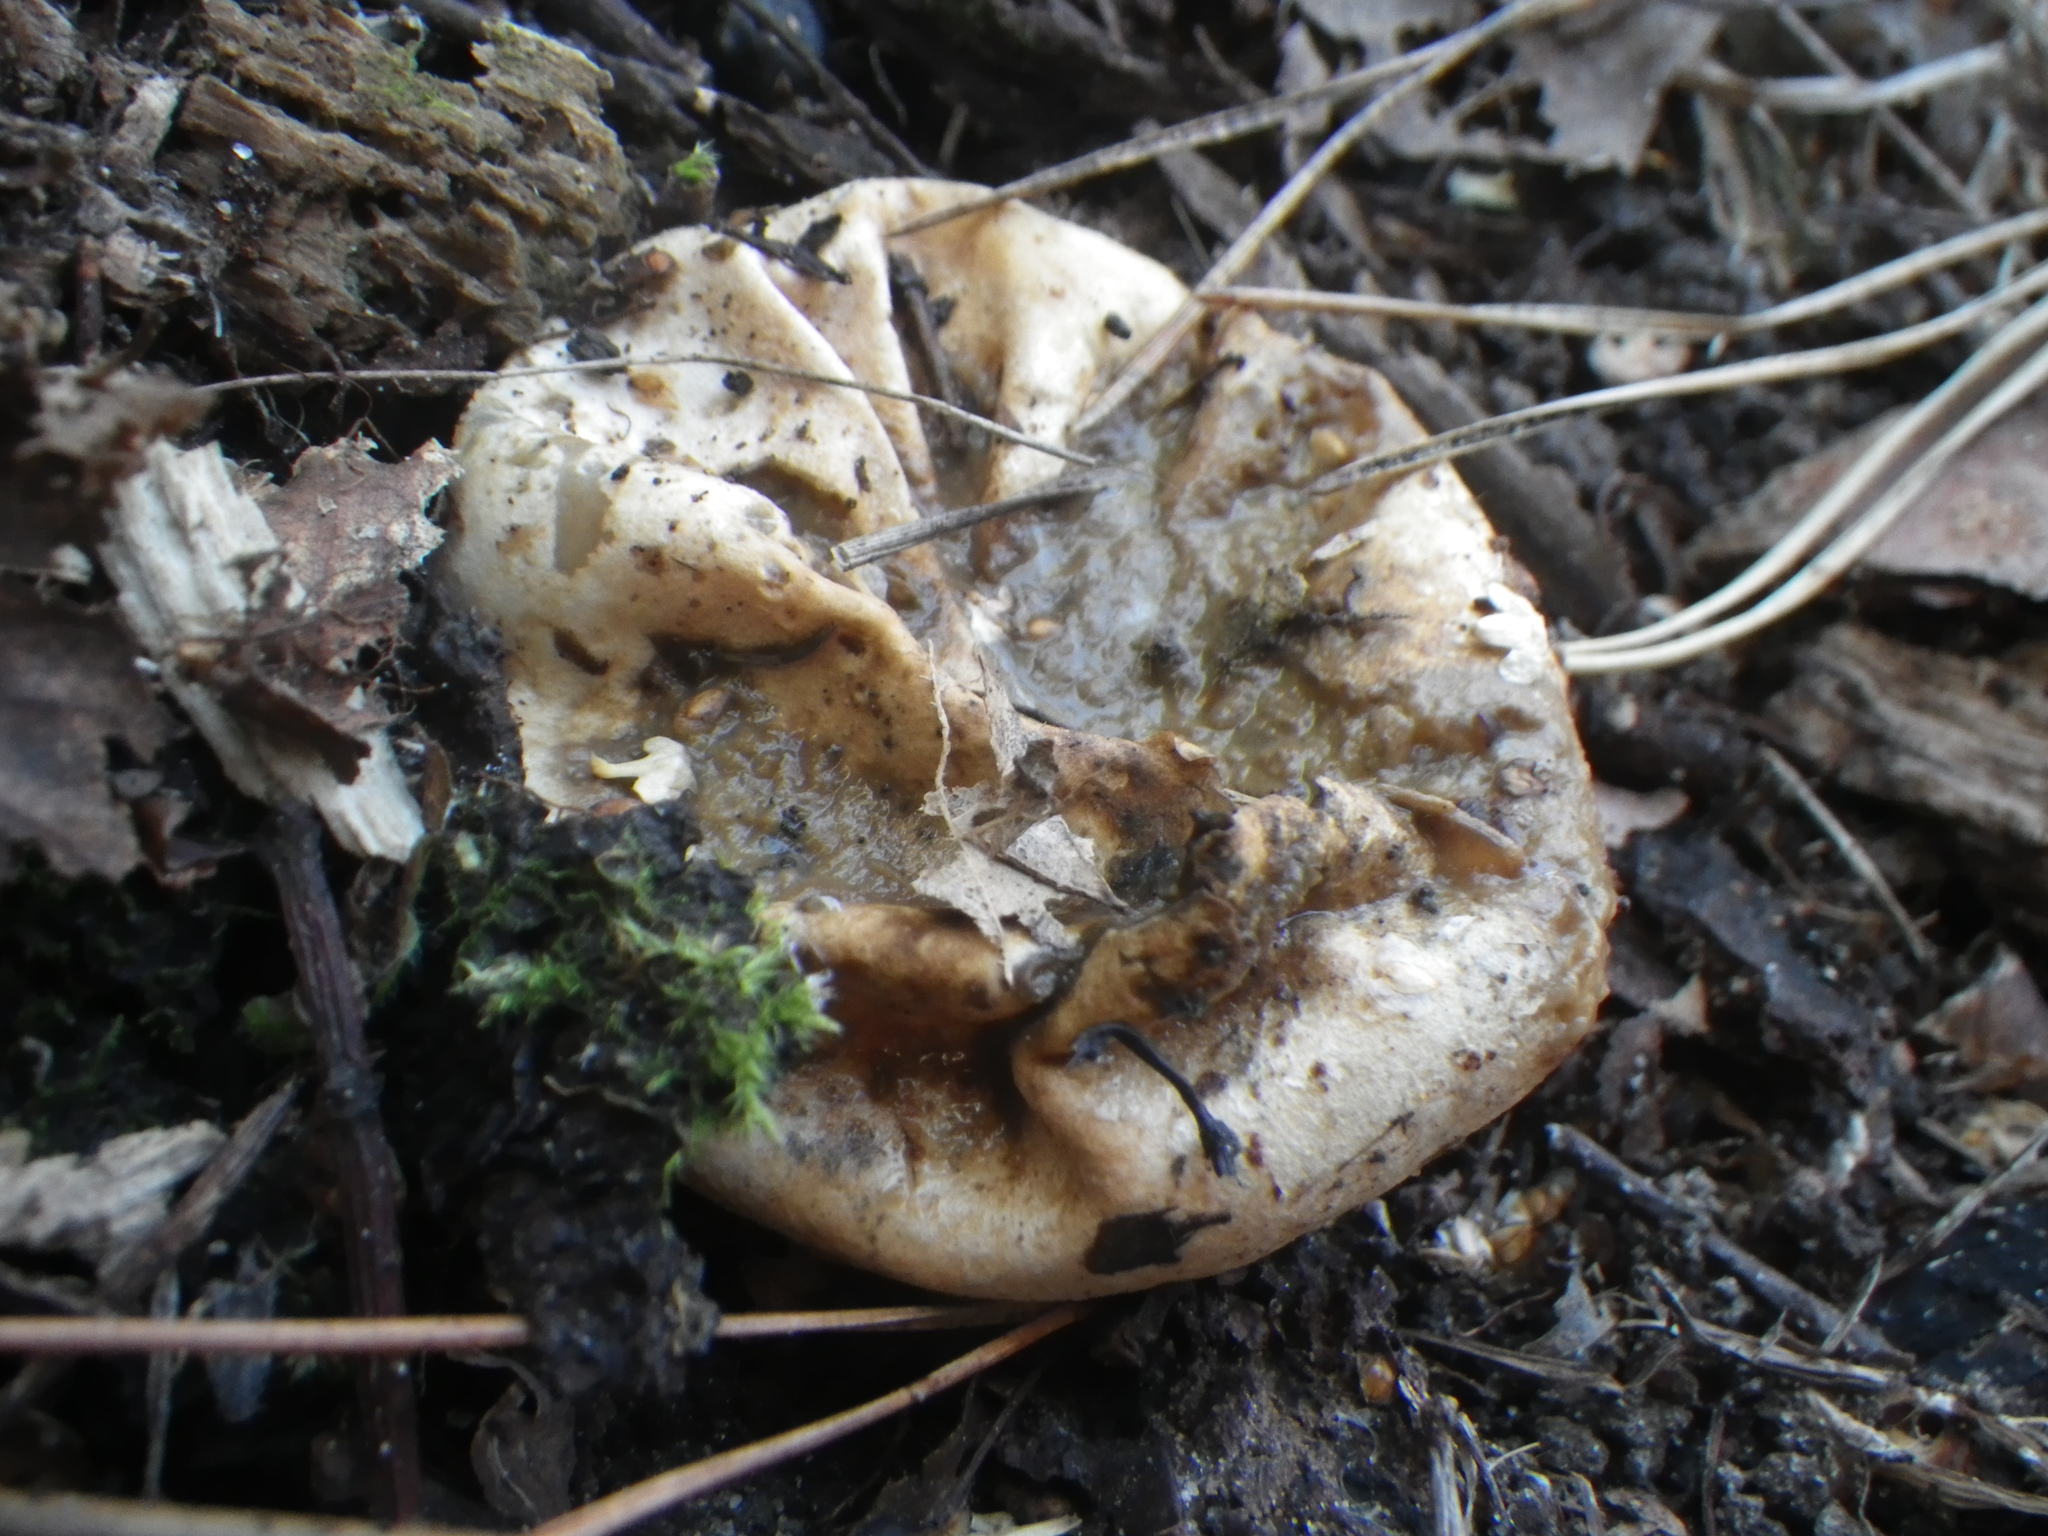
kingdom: Fungi
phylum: Basidiomycota
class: Agaricomycetes
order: Phallales
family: Phallaceae
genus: Phallus
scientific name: Phallus impudicus
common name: Common stinkhorn
